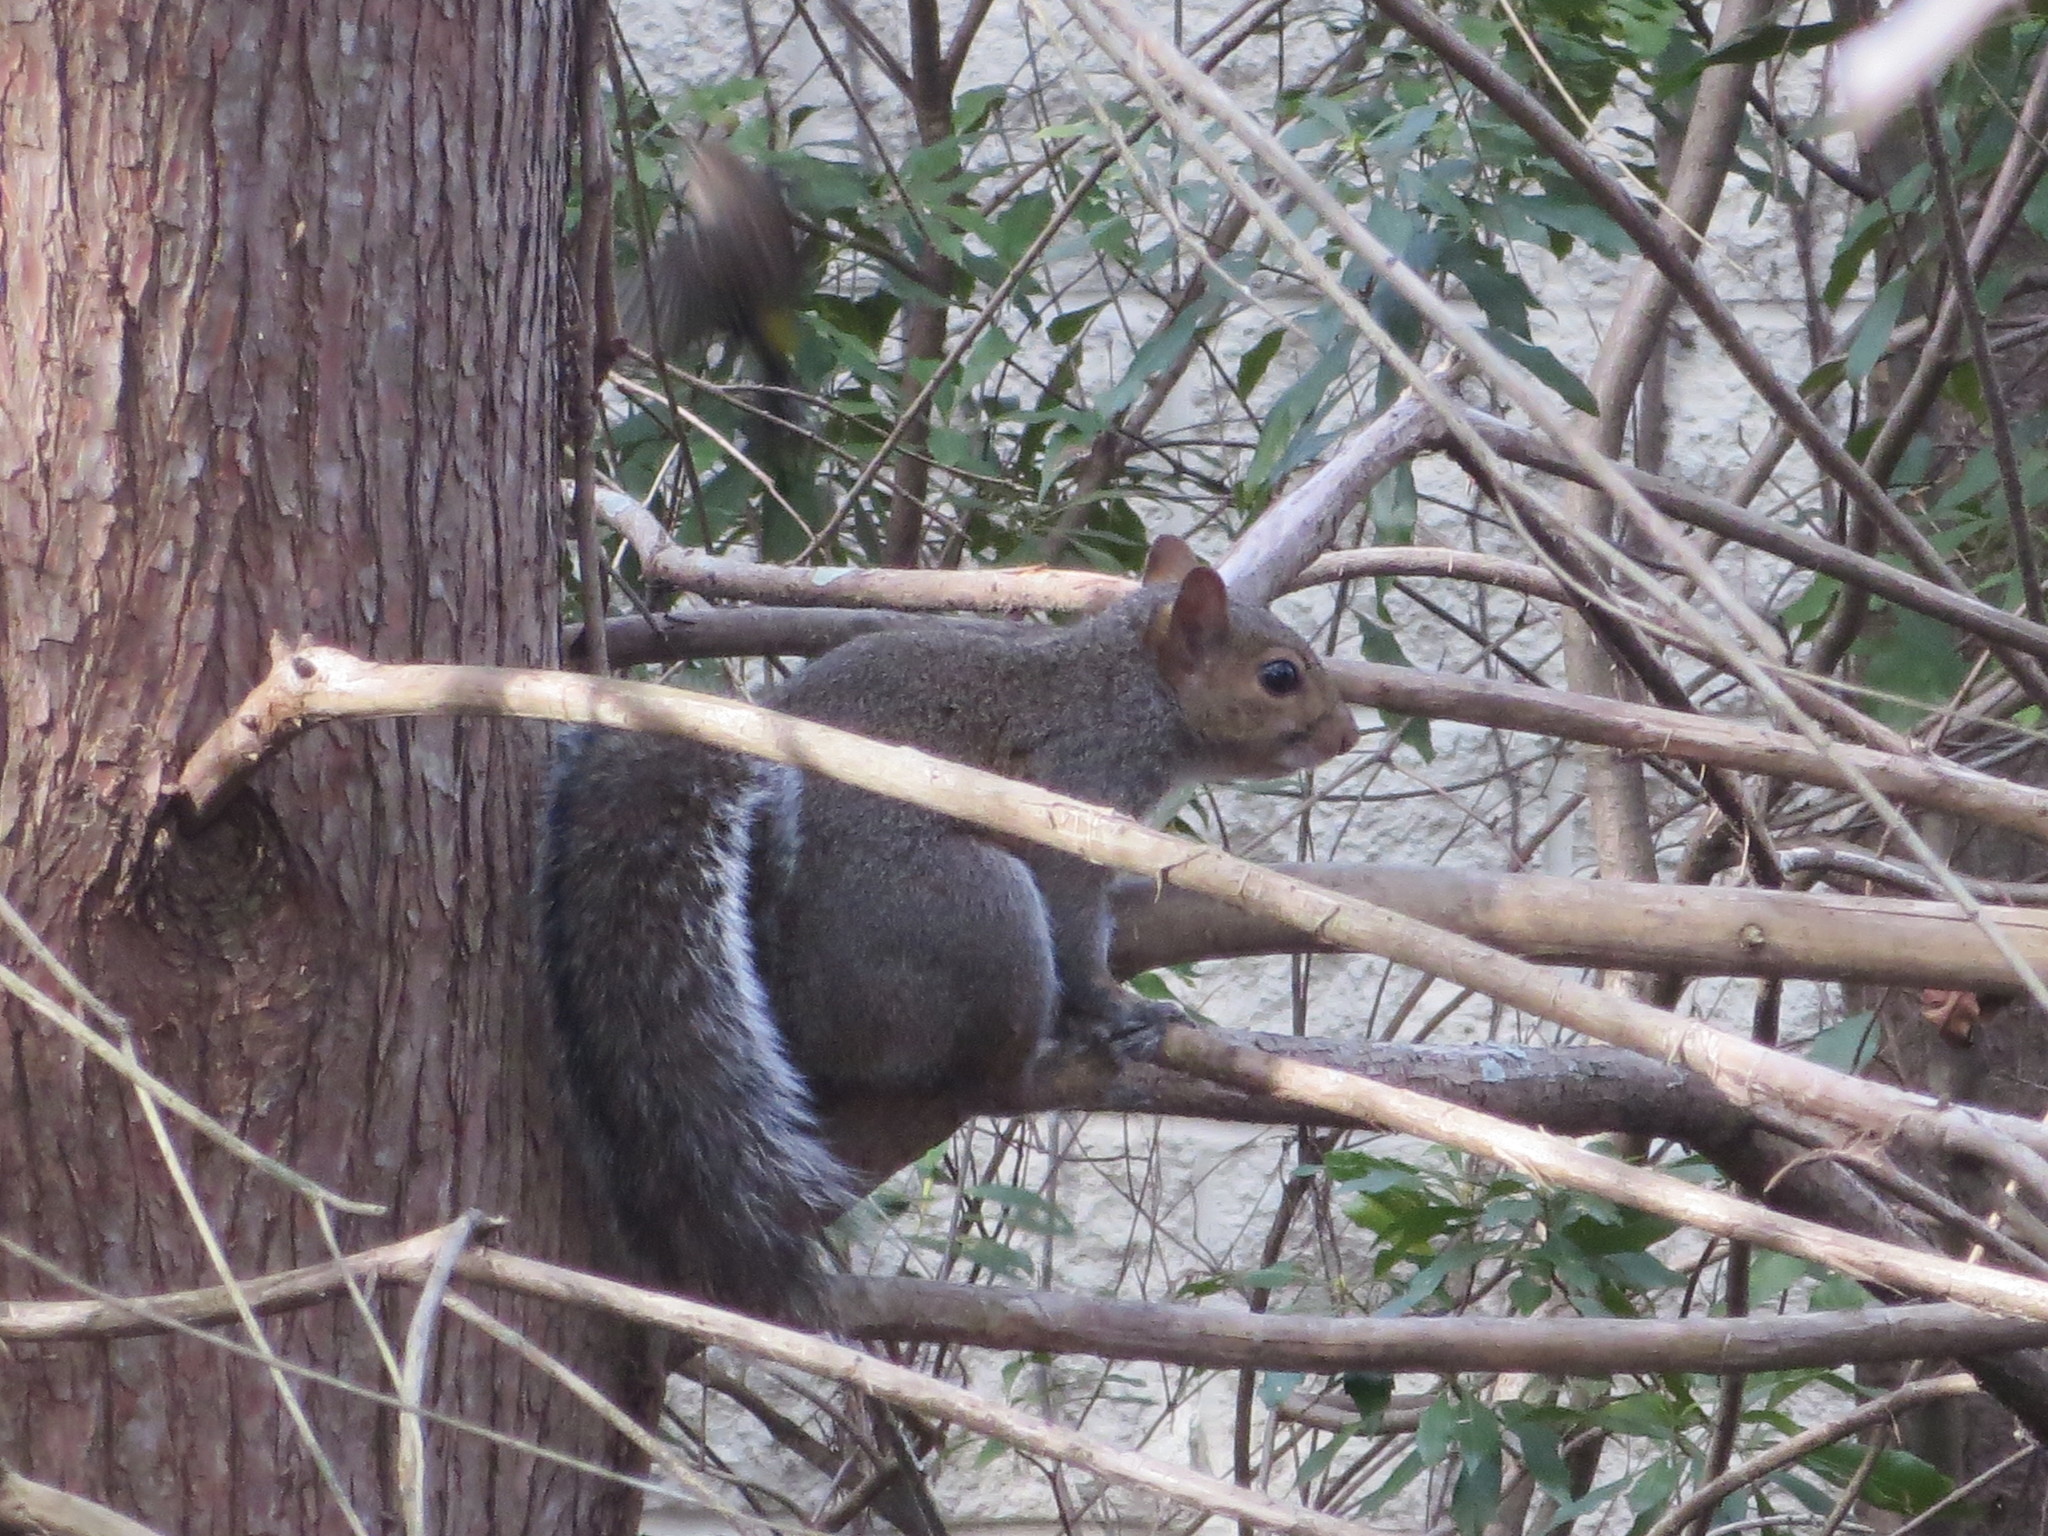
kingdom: Animalia
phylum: Chordata
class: Mammalia
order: Rodentia
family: Sciuridae
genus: Sciurus
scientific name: Sciurus carolinensis
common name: Eastern gray squirrel
